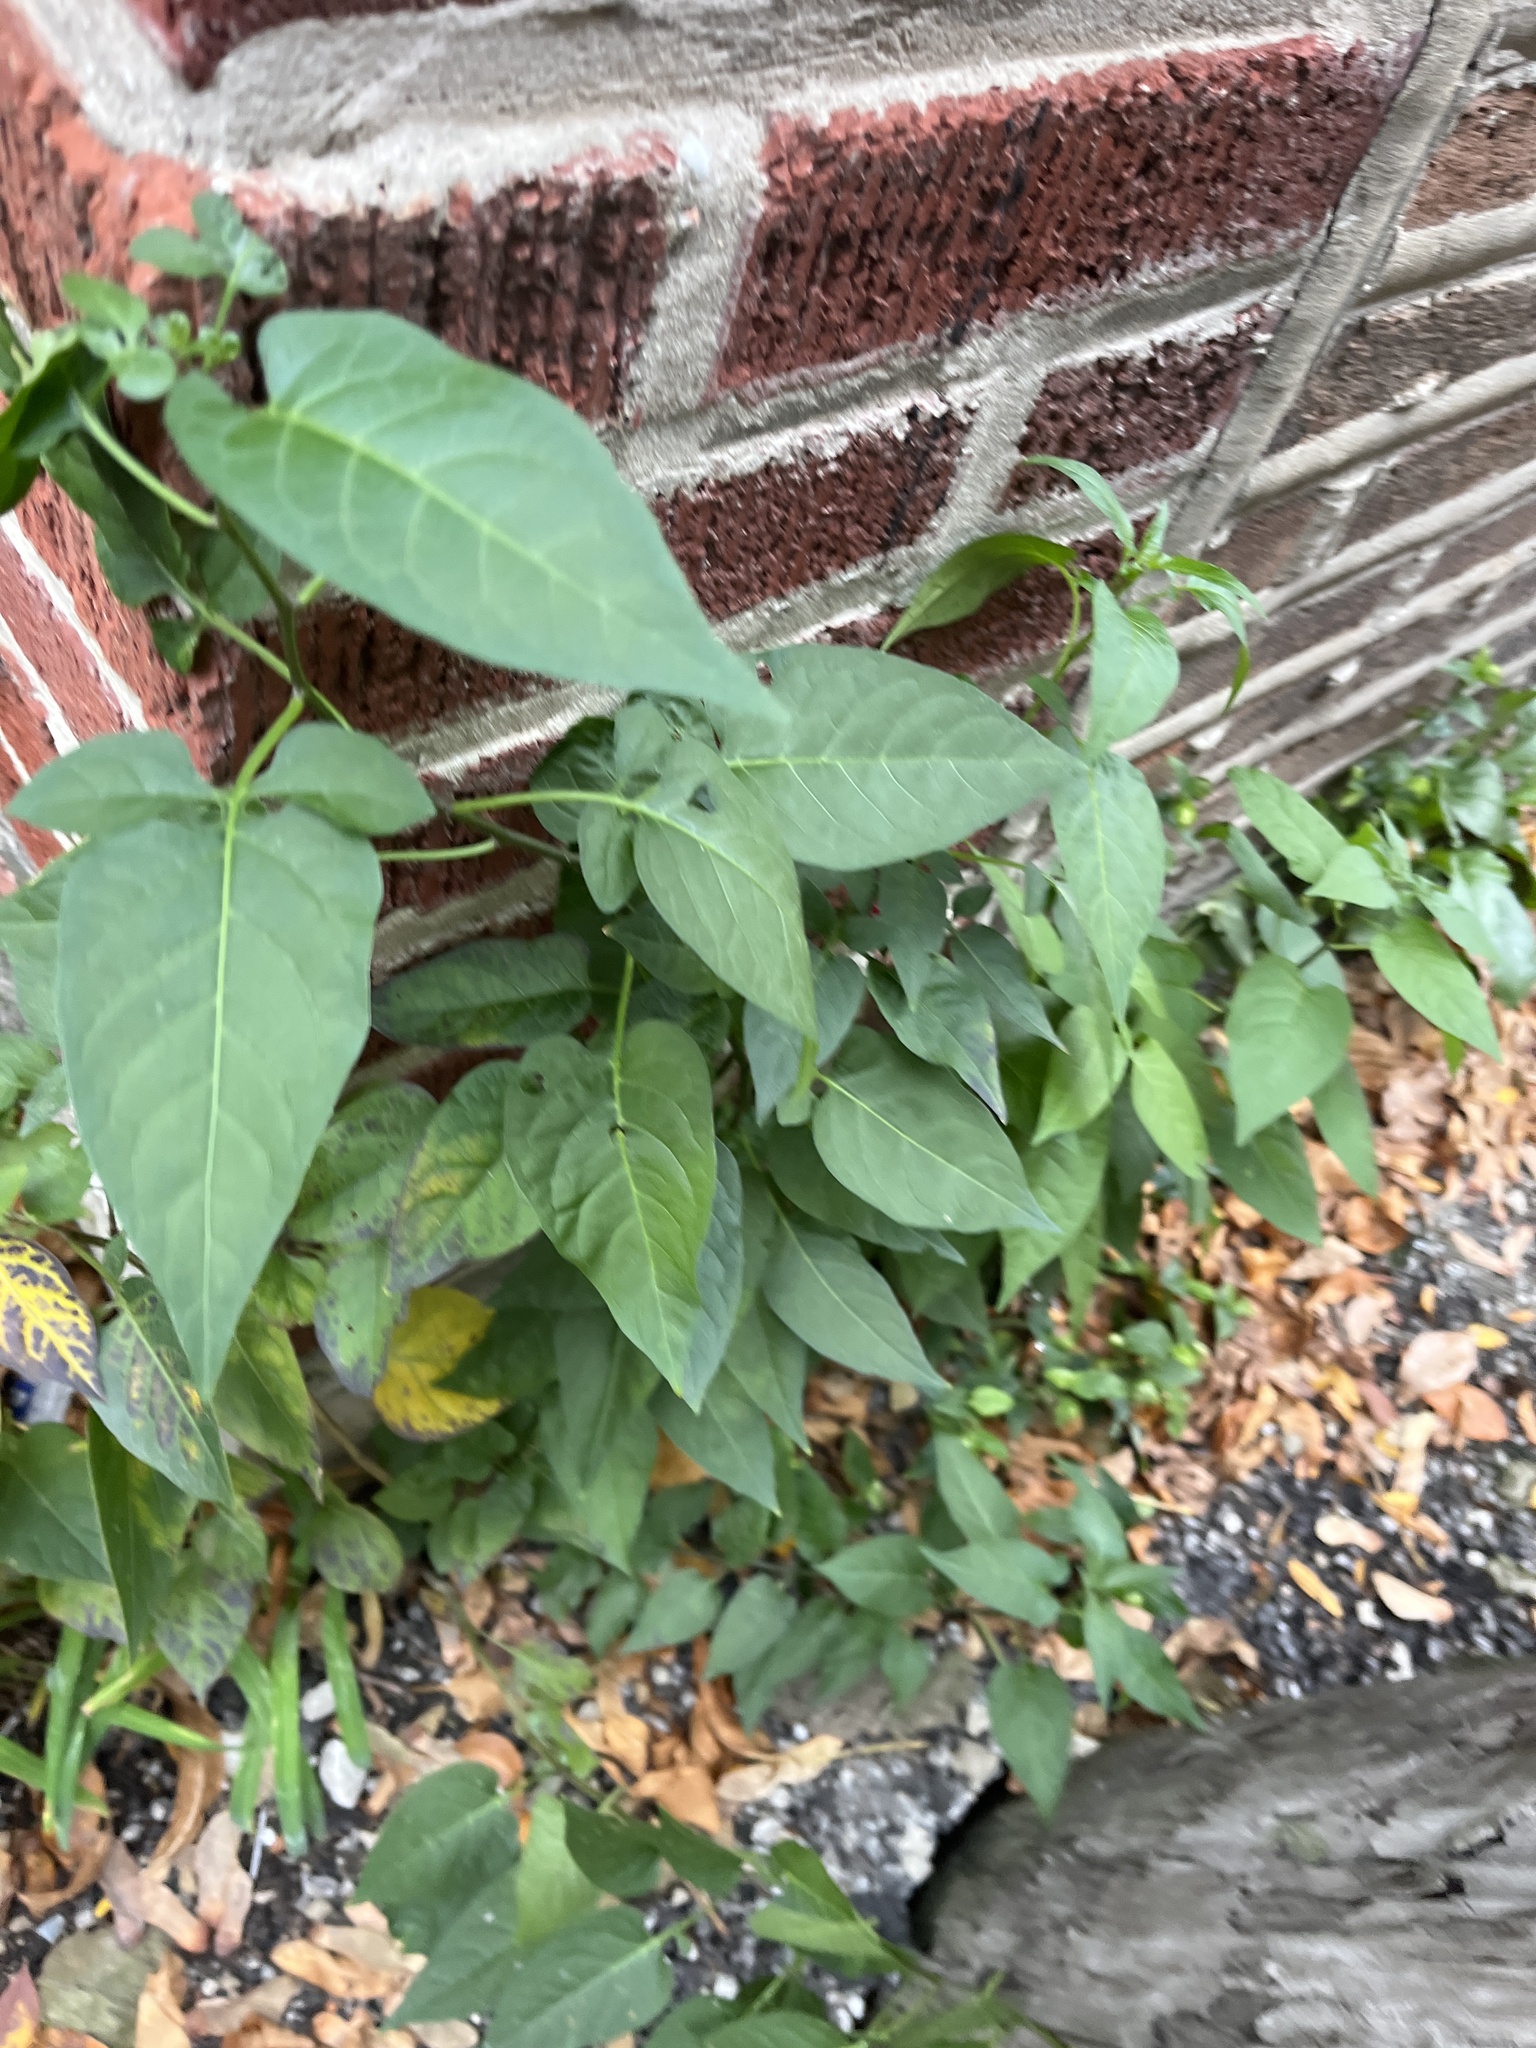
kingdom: Plantae
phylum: Tracheophyta
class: Magnoliopsida
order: Solanales
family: Solanaceae
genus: Solanum
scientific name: Solanum dulcamara
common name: Climbing nightshade
